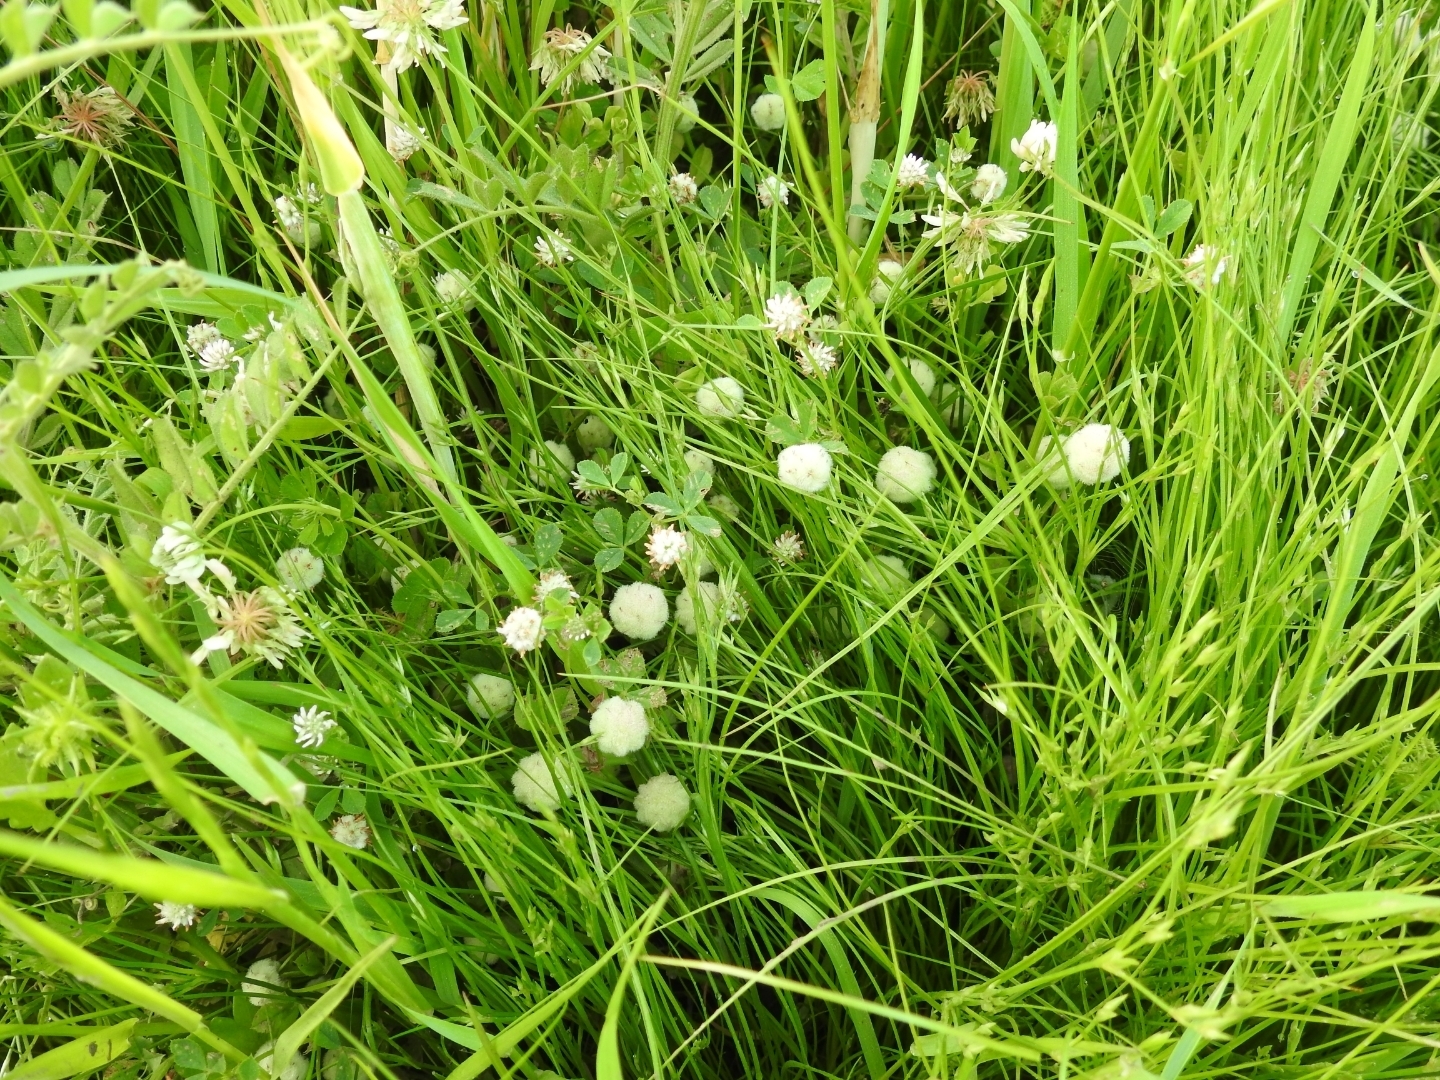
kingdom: Plantae
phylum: Tracheophyta
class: Magnoliopsida
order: Fabales
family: Fabaceae
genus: Trifolium
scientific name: Trifolium tomentosum
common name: Woolly clover
